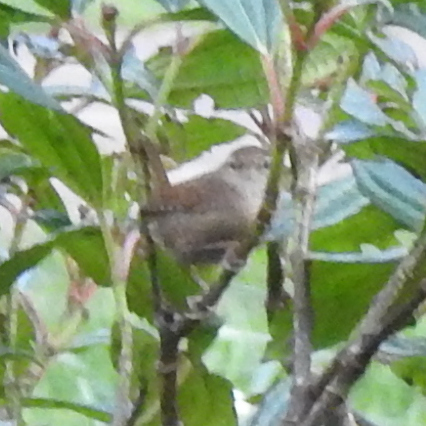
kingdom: Animalia
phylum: Chordata
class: Aves
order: Passeriformes
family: Troglodytidae
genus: Troglodytes
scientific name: Troglodytes troglodytes
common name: Eurasian wren
